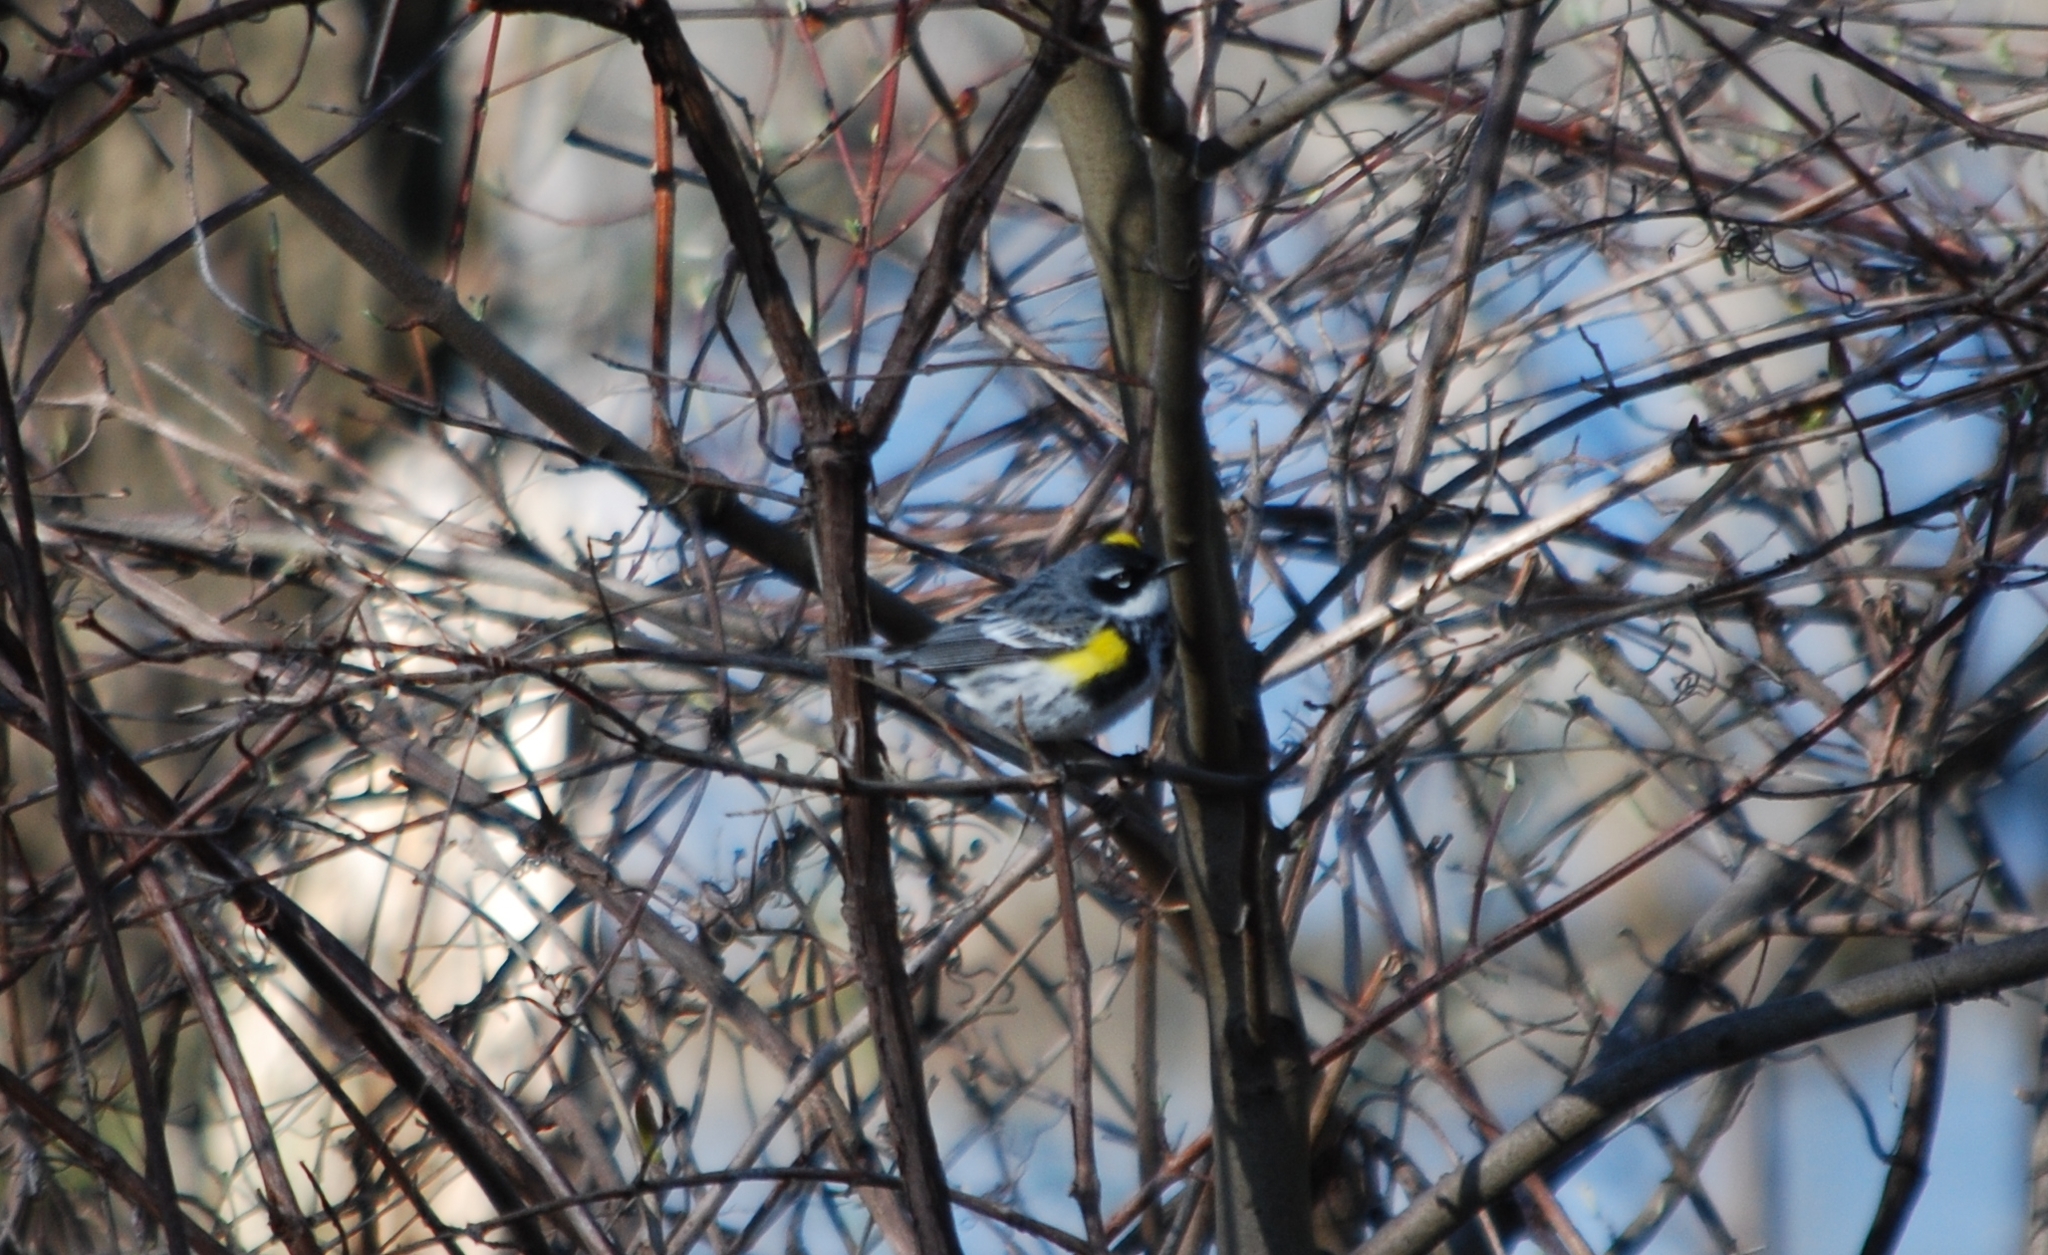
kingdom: Animalia
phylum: Chordata
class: Aves
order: Passeriformes
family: Parulidae
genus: Setophaga
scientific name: Setophaga coronata
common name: Myrtle warbler
